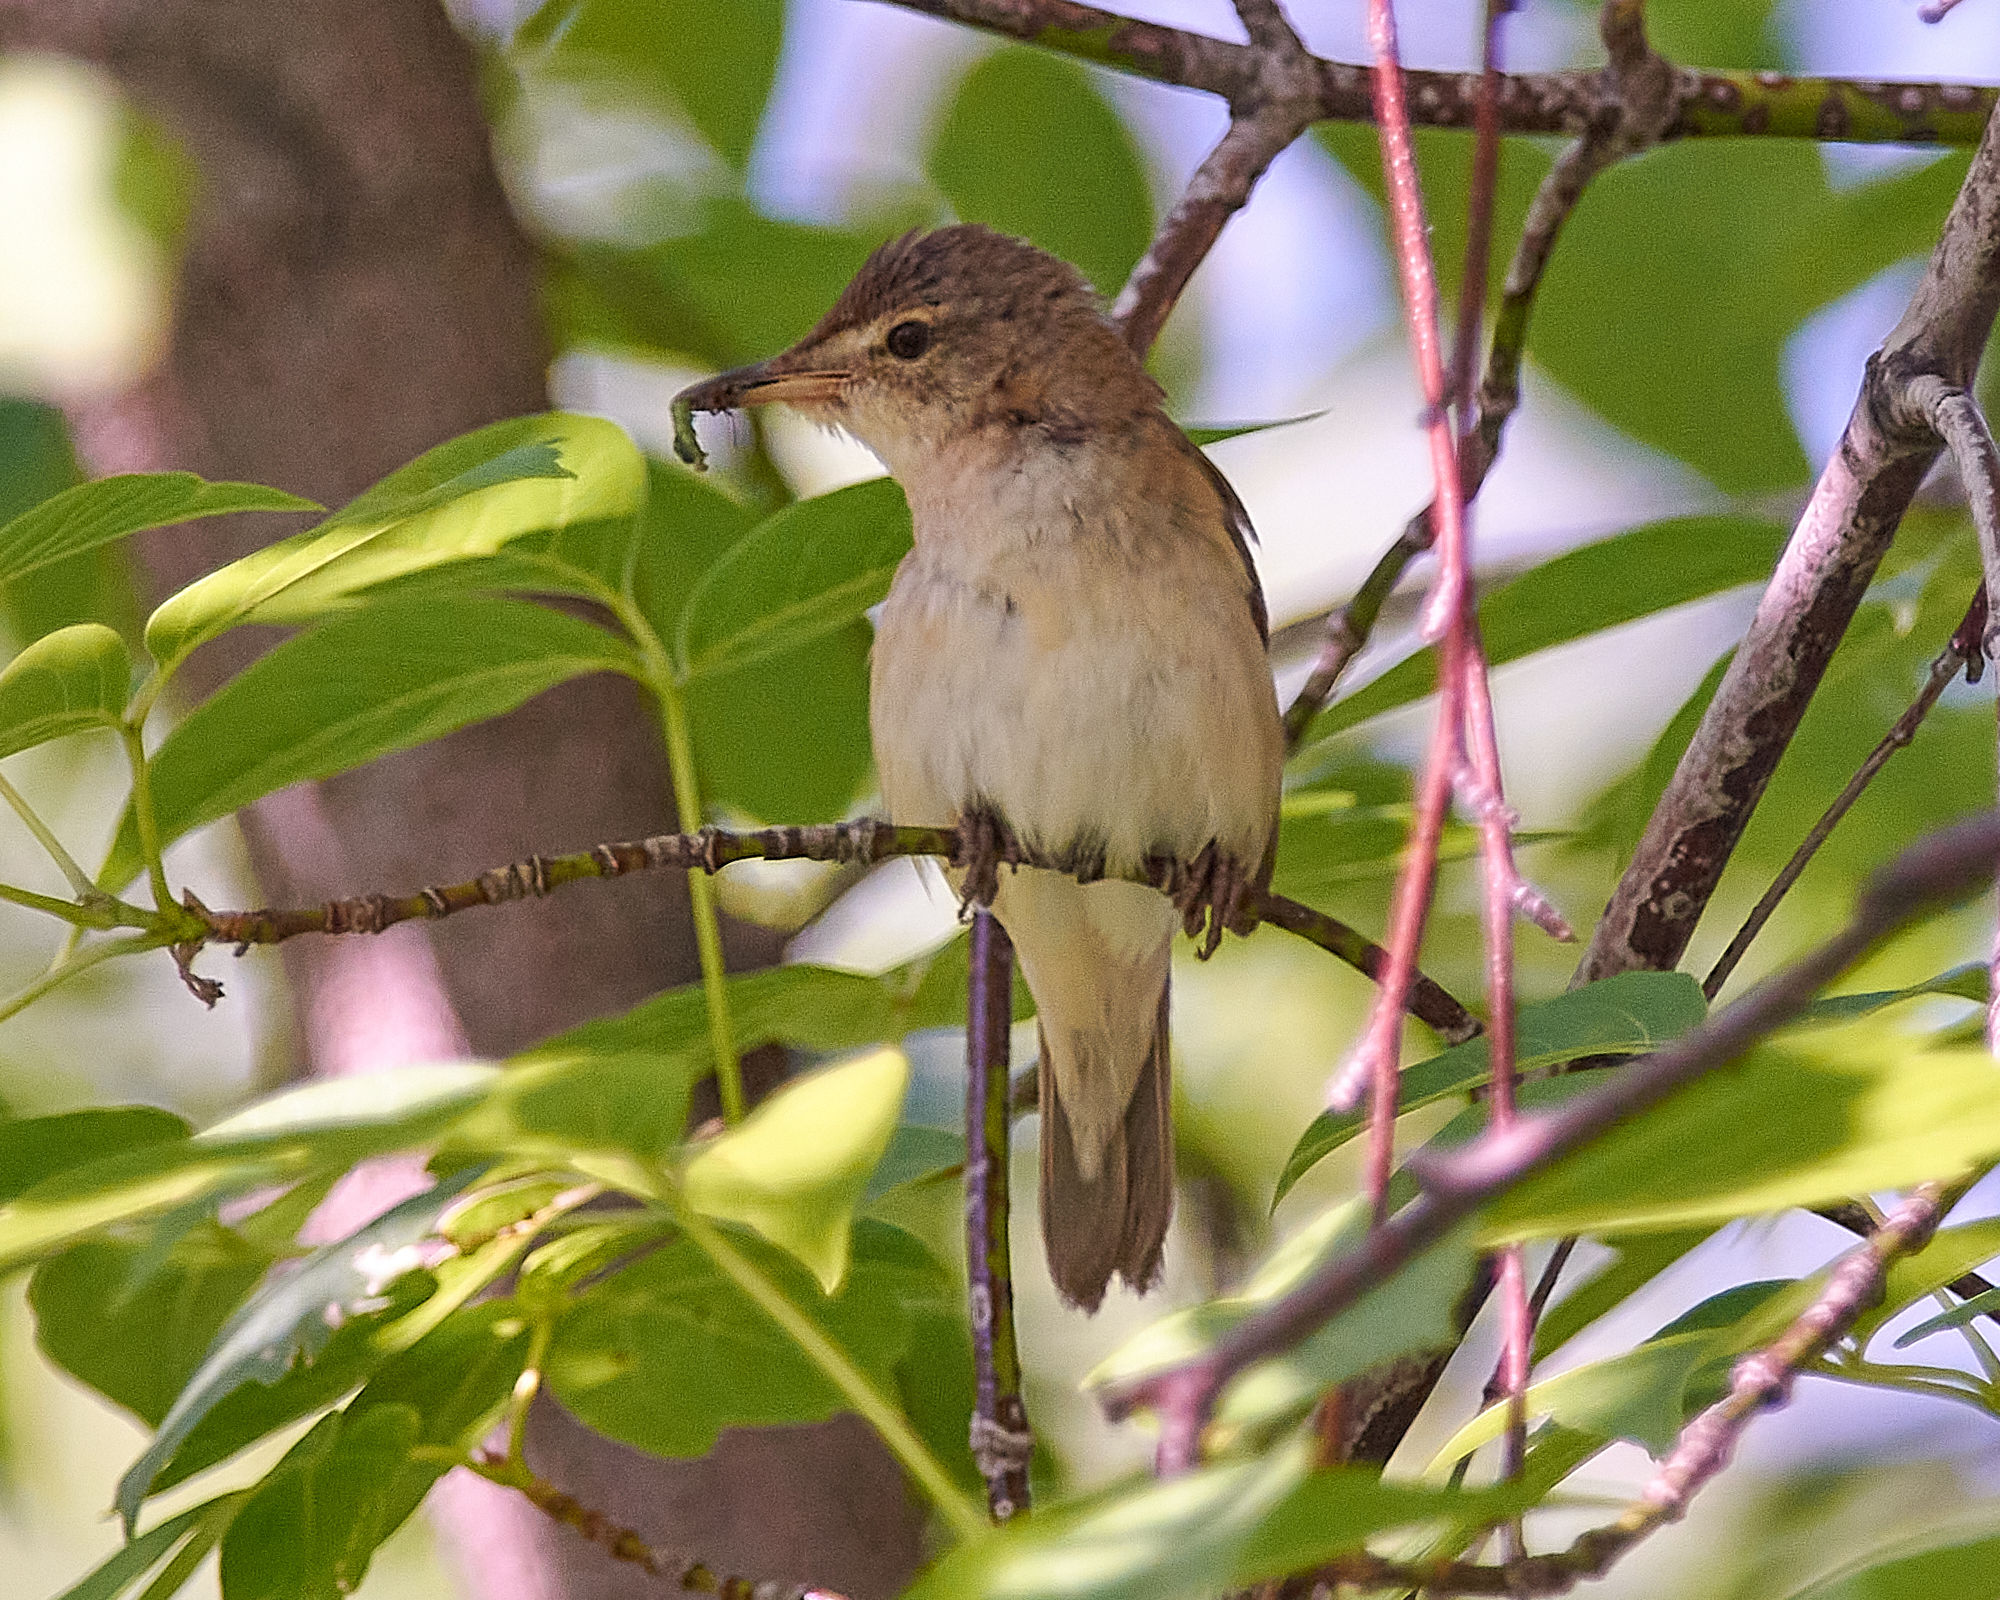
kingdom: Animalia
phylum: Chordata
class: Aves
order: Passeriformes
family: Acrocephalidae
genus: Acrocephalus
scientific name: Acrocephalus dumetorum
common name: Blyth's reed warbler
